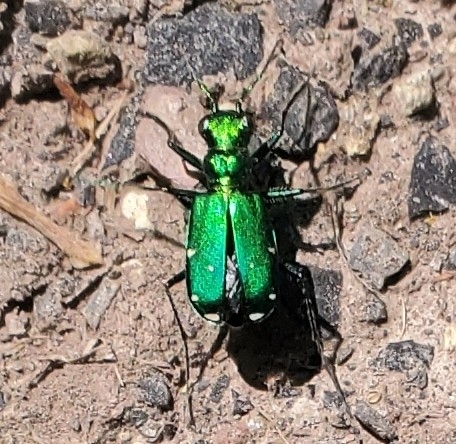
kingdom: Animalia
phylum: Arthropoda
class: Insecta
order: Coleoptera
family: Carabidae
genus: Cicindela
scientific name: Cicindela sexguttata
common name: Six-spotted tiger beetle
